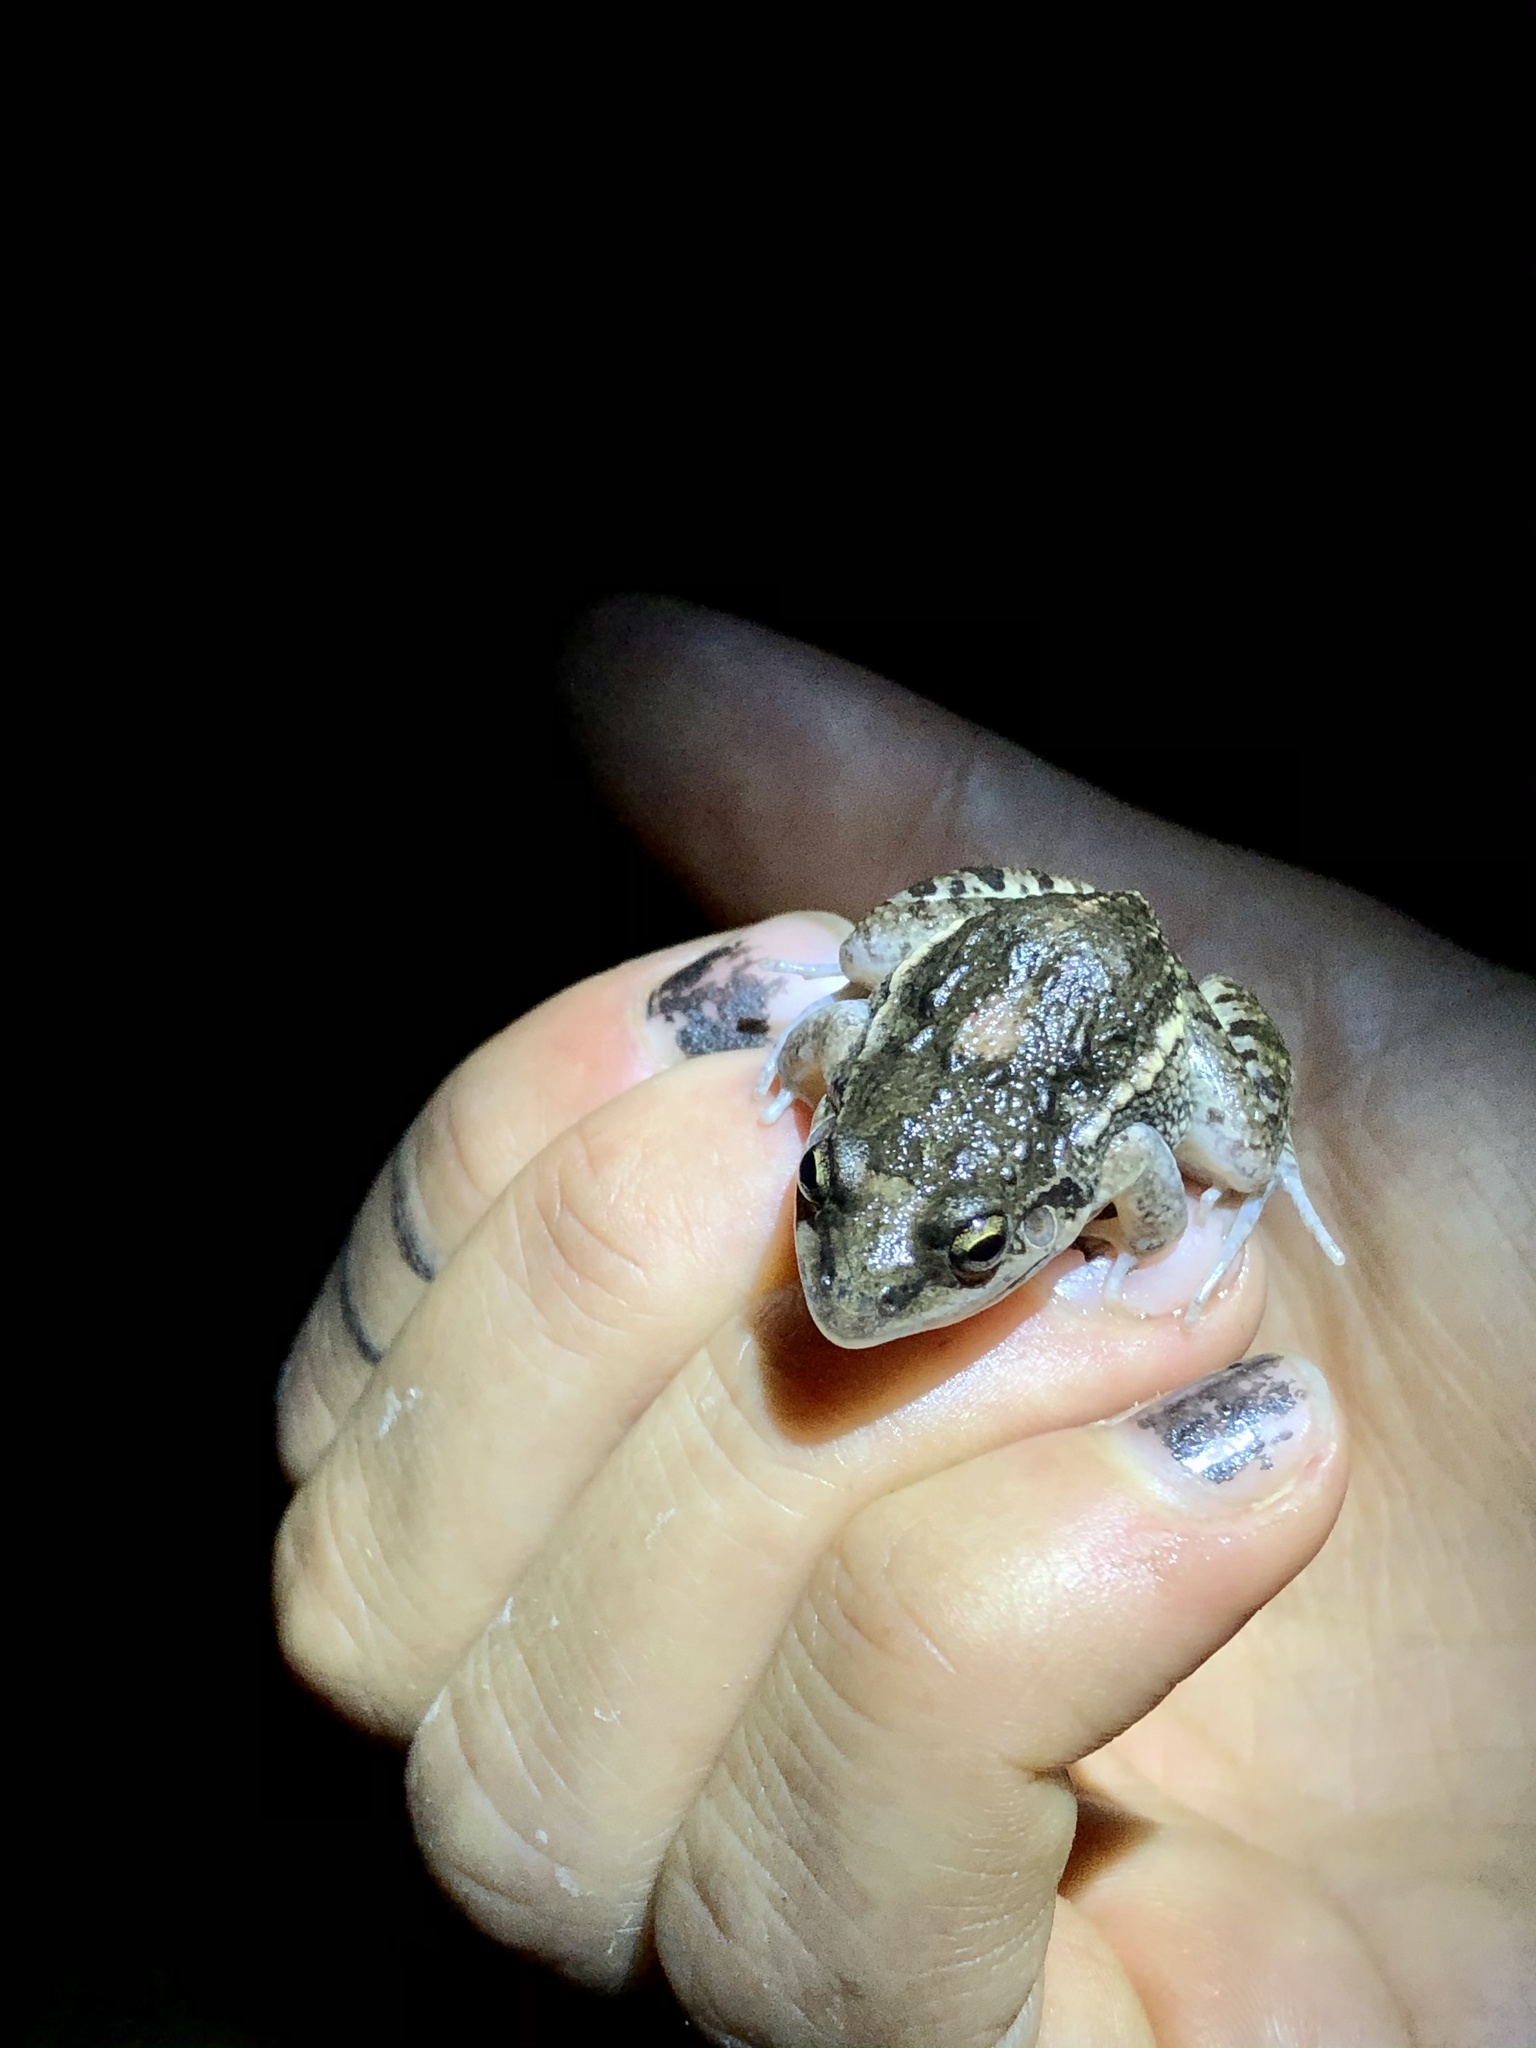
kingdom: Animalia
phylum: Chordata
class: Amphibia
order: Anura
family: Leptodactylidae
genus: Leptodactylus
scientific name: Leptodactylus latinasus
